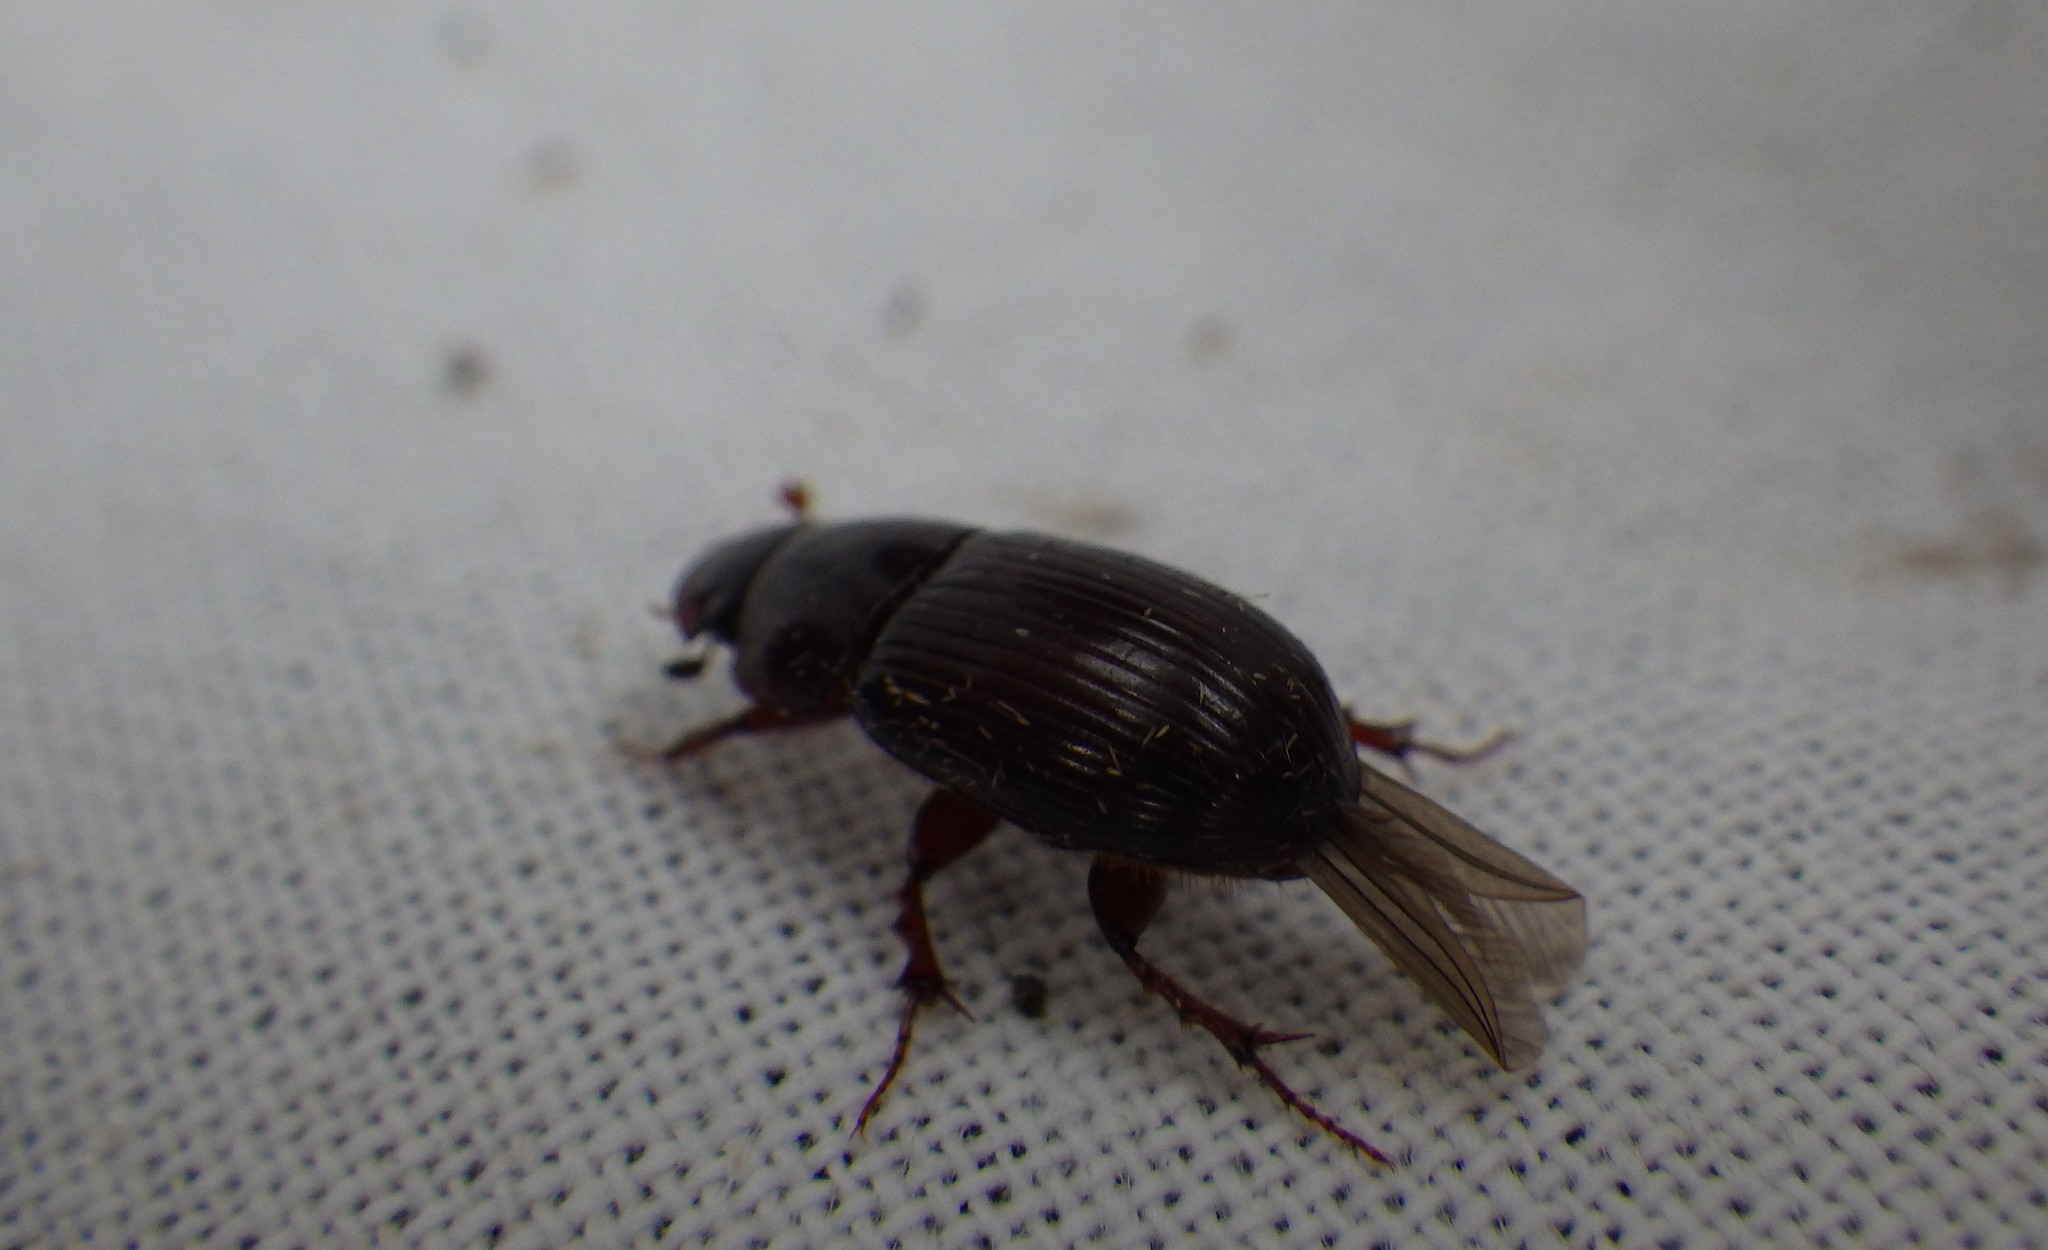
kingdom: Animalia
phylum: Arthropoda
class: Insecta
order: Coleoptera
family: Scarabaeidae
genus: Acrossus
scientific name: Acrossus rufipes
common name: Night-flying dung beetle
